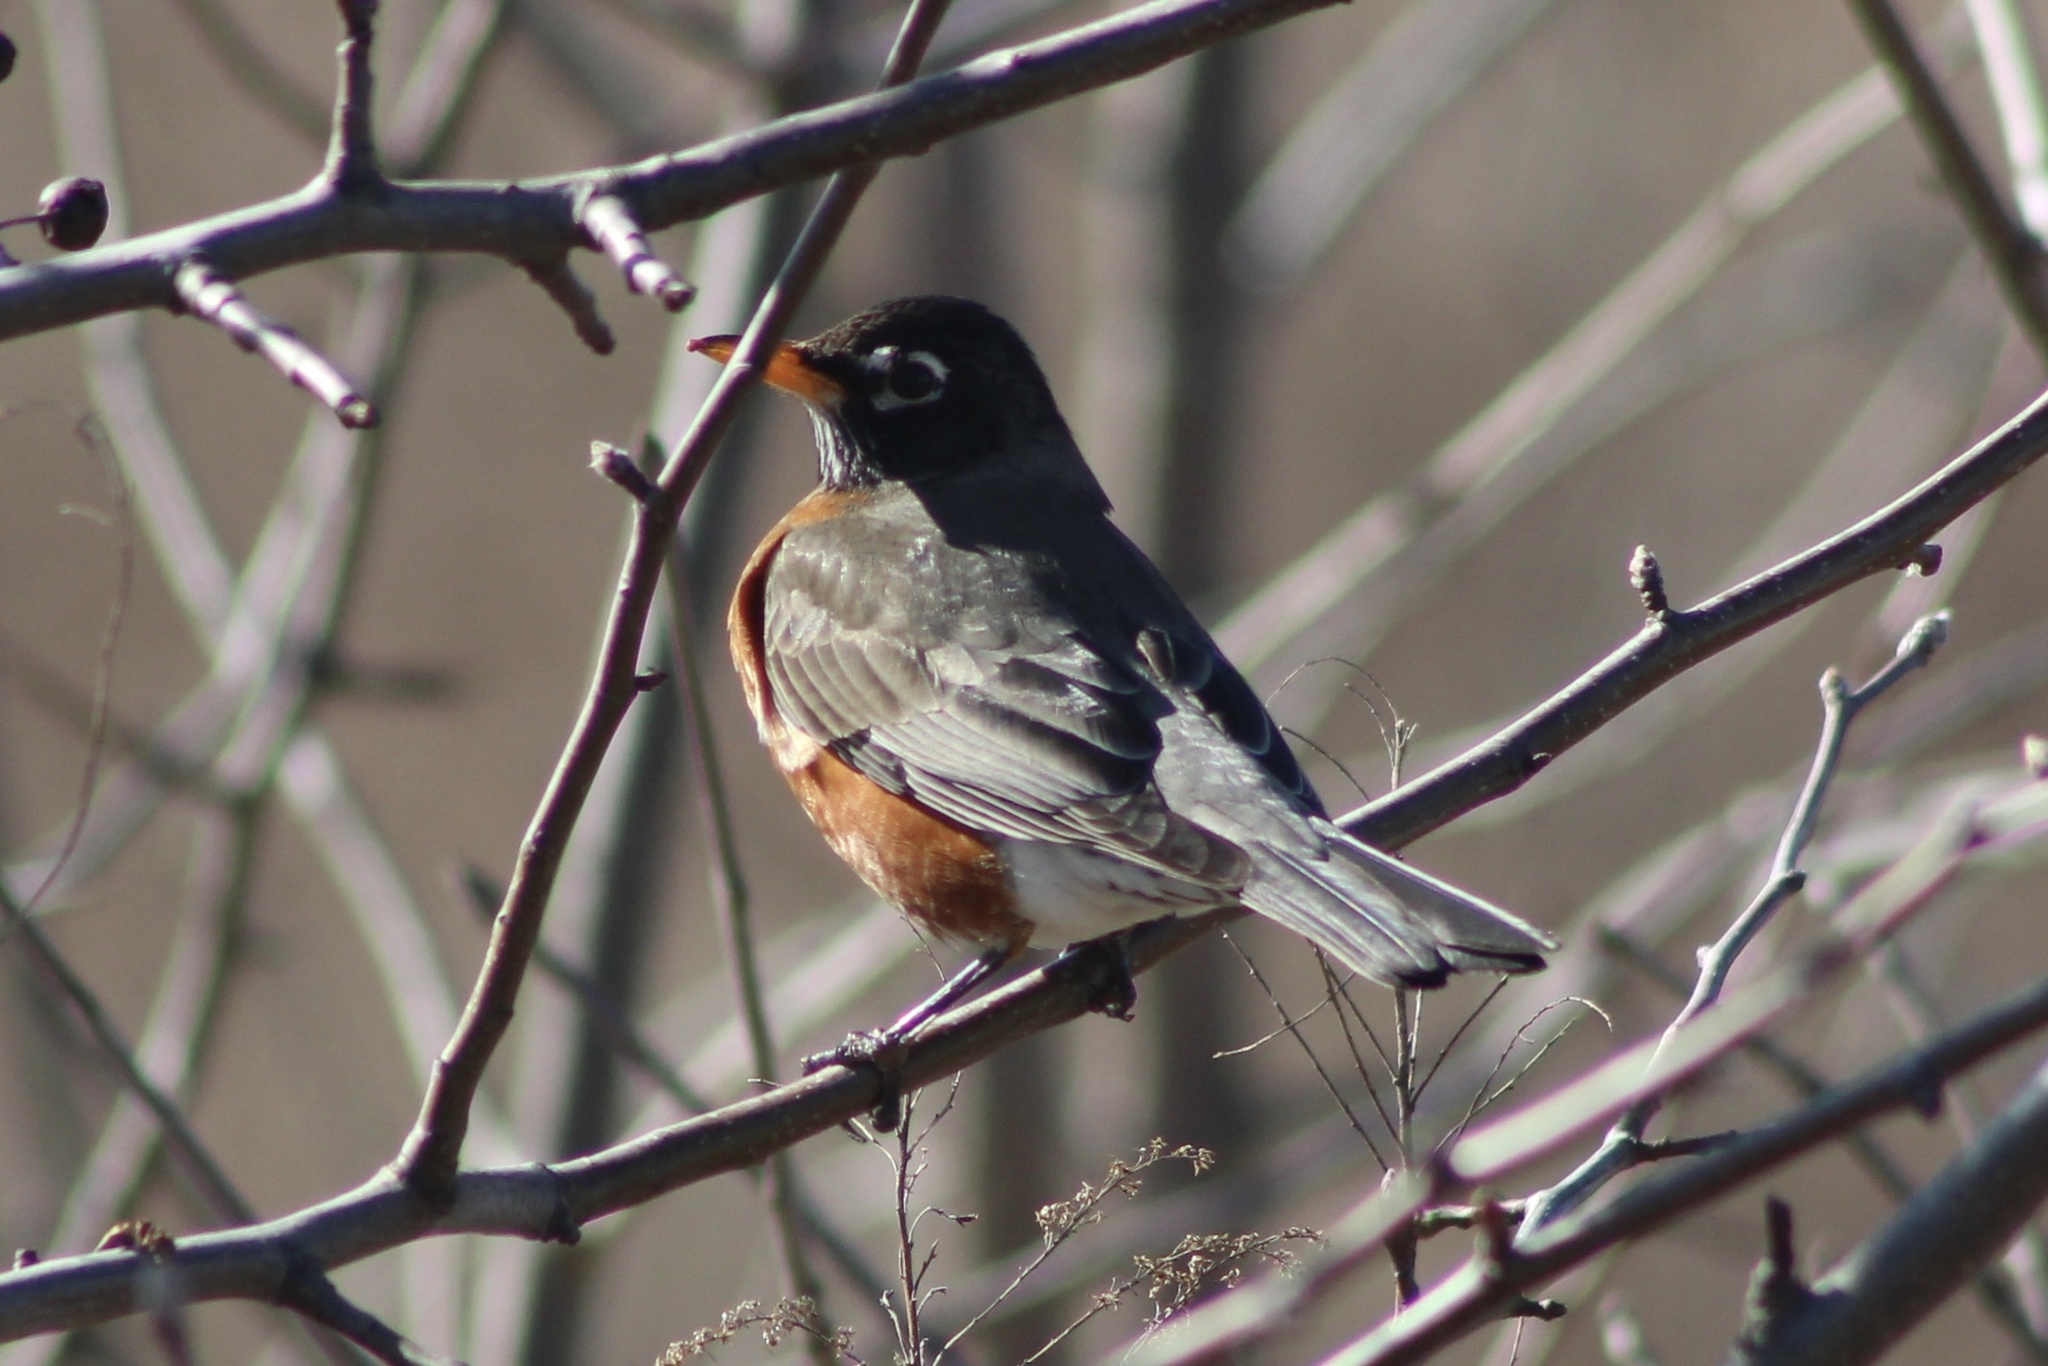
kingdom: Animalia
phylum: Chordata
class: Aves
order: Passeriformes
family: Turdidae
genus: Turdus
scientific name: Turdus migratorius
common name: American robin
